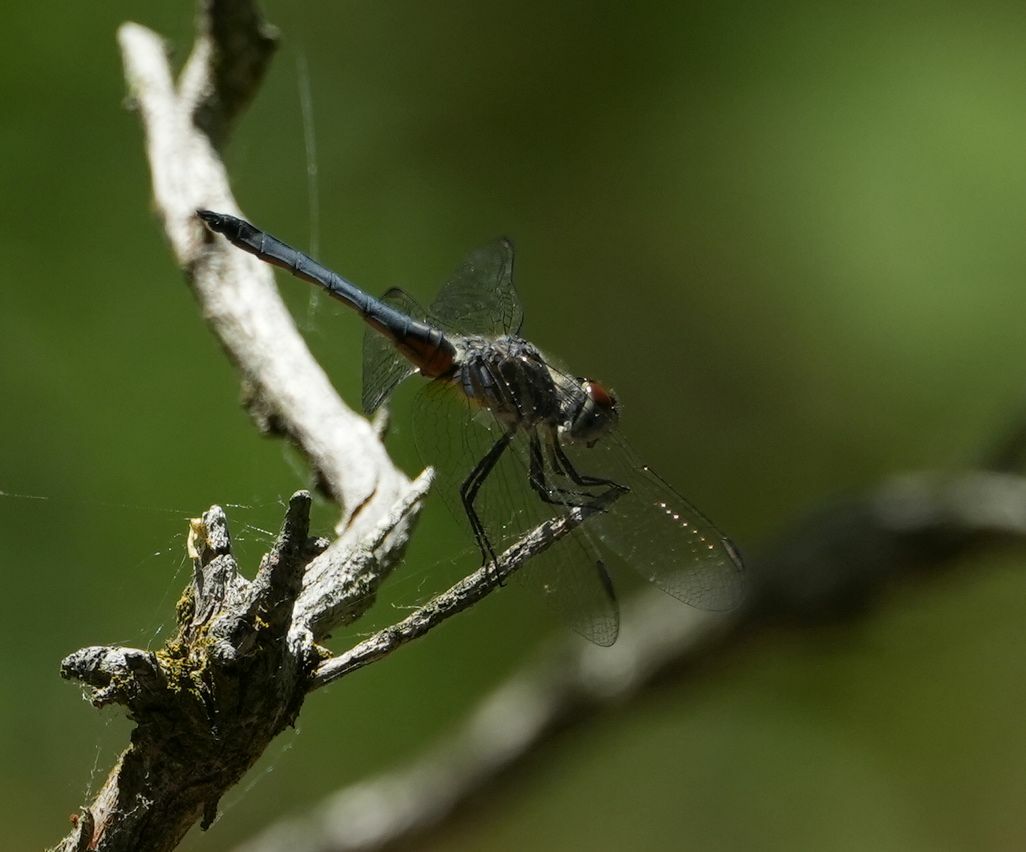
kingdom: Animalia
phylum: Arthropoda
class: Insecta
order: Odonata
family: Libellulidae
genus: Pachydiplax
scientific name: Pachydiplax longipennis
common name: Blue dasher
